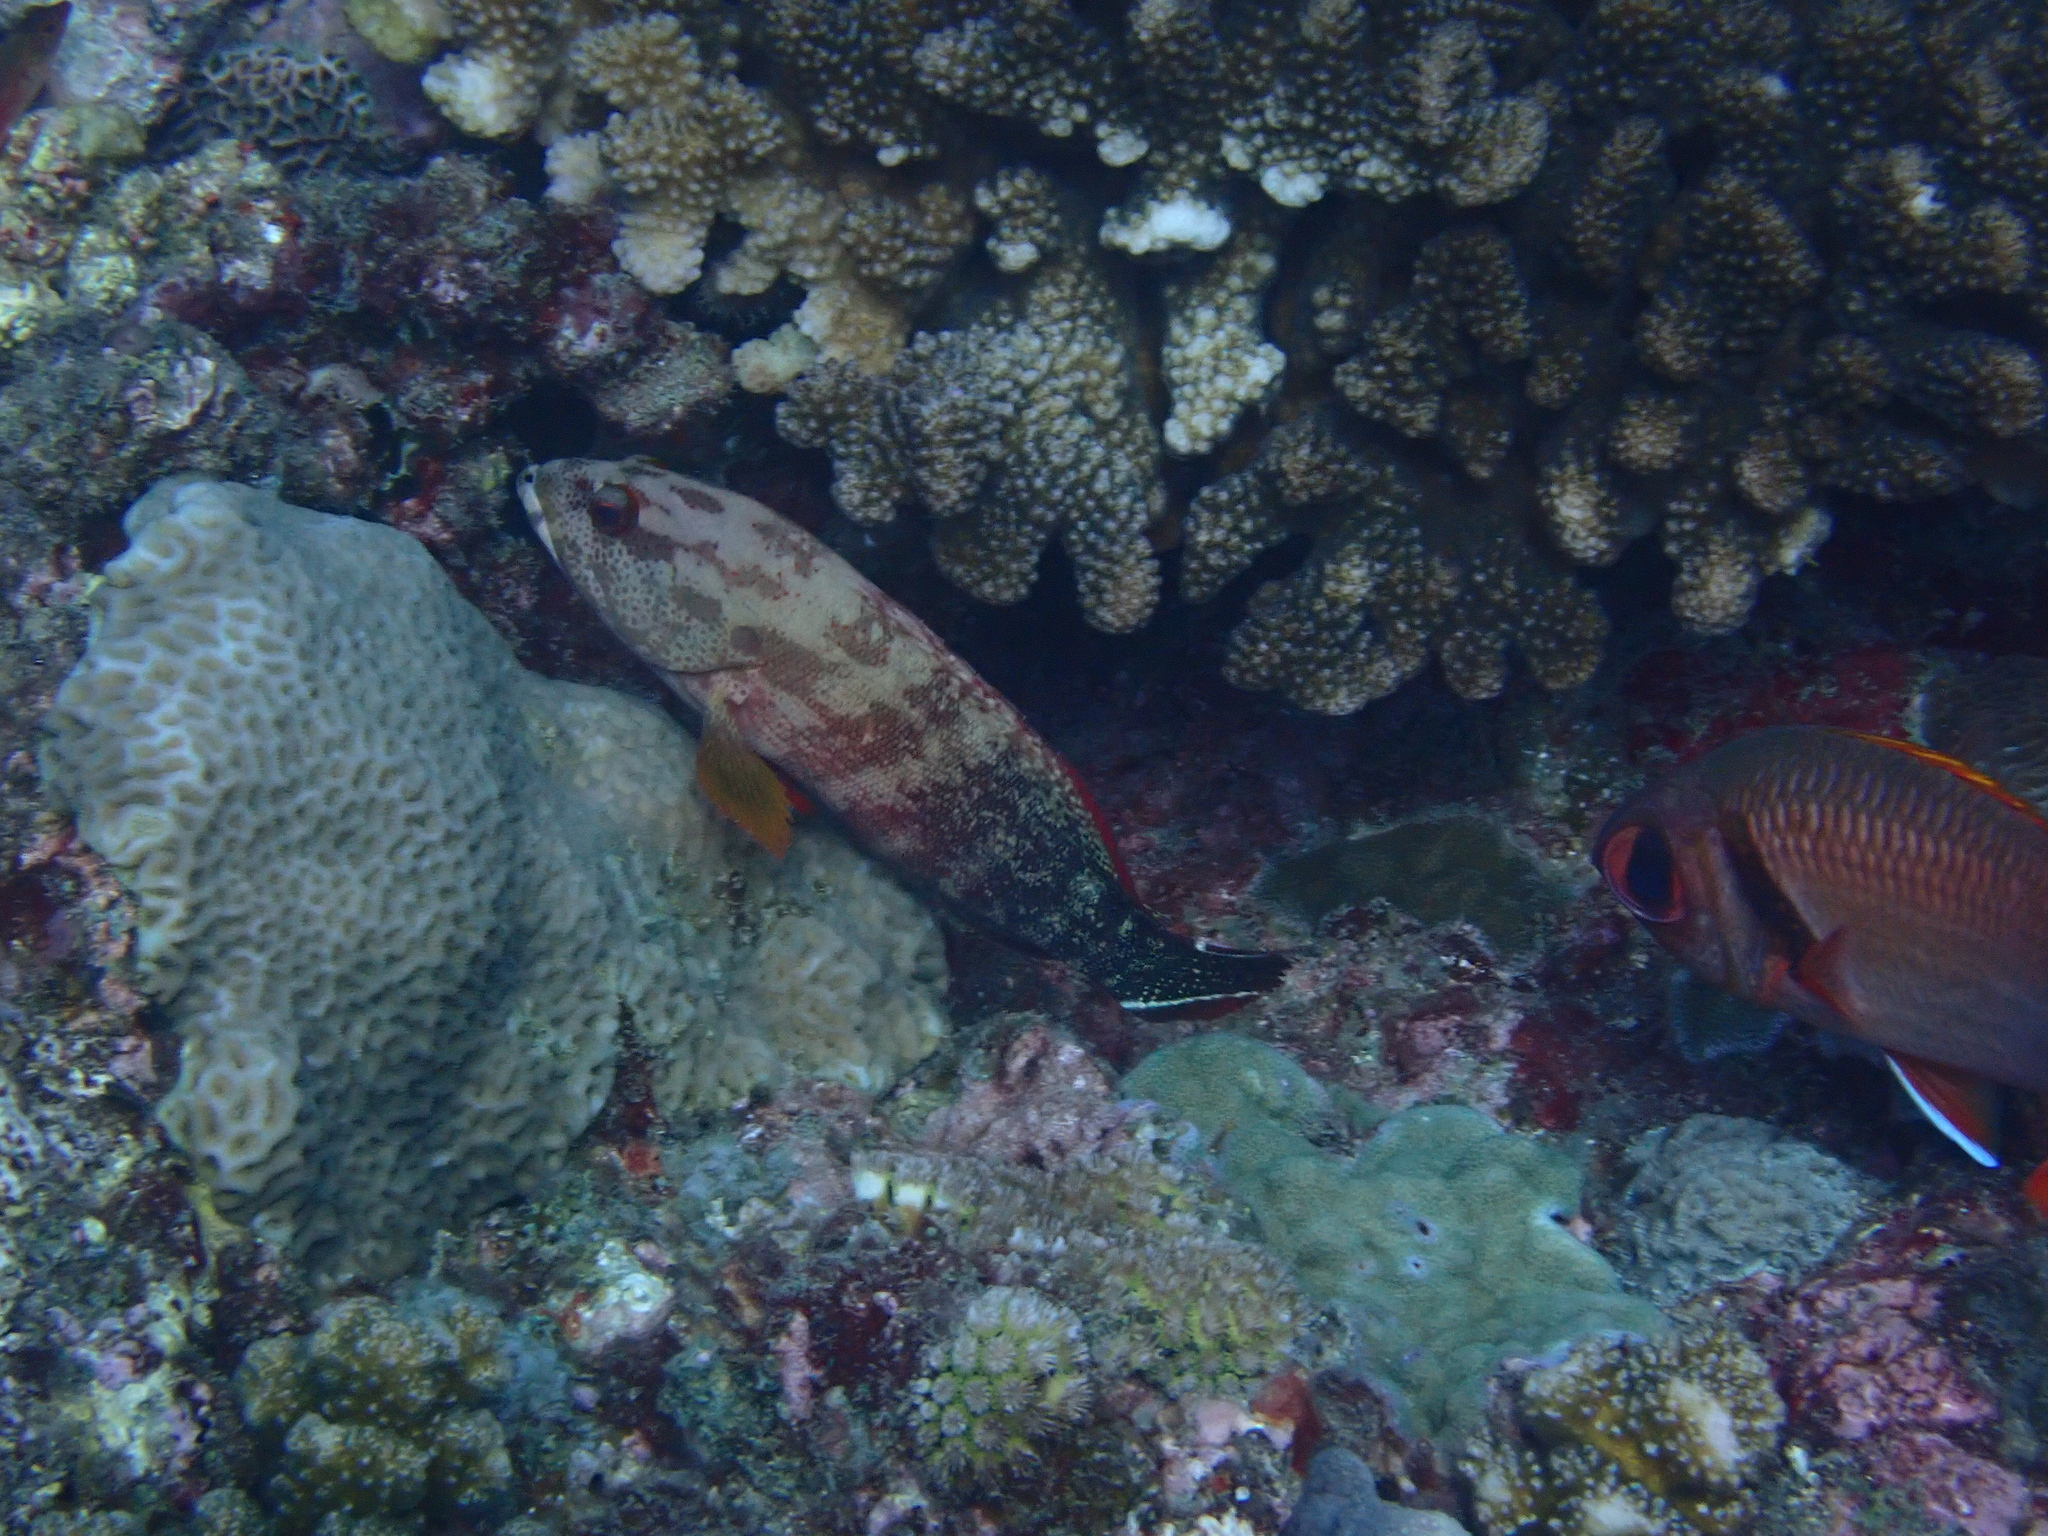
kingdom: Animalia
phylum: Chordata
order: Perciformes
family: Serranidae
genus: Cephalopholis
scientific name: Cephalopholis urodeta
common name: Darkfin hind
